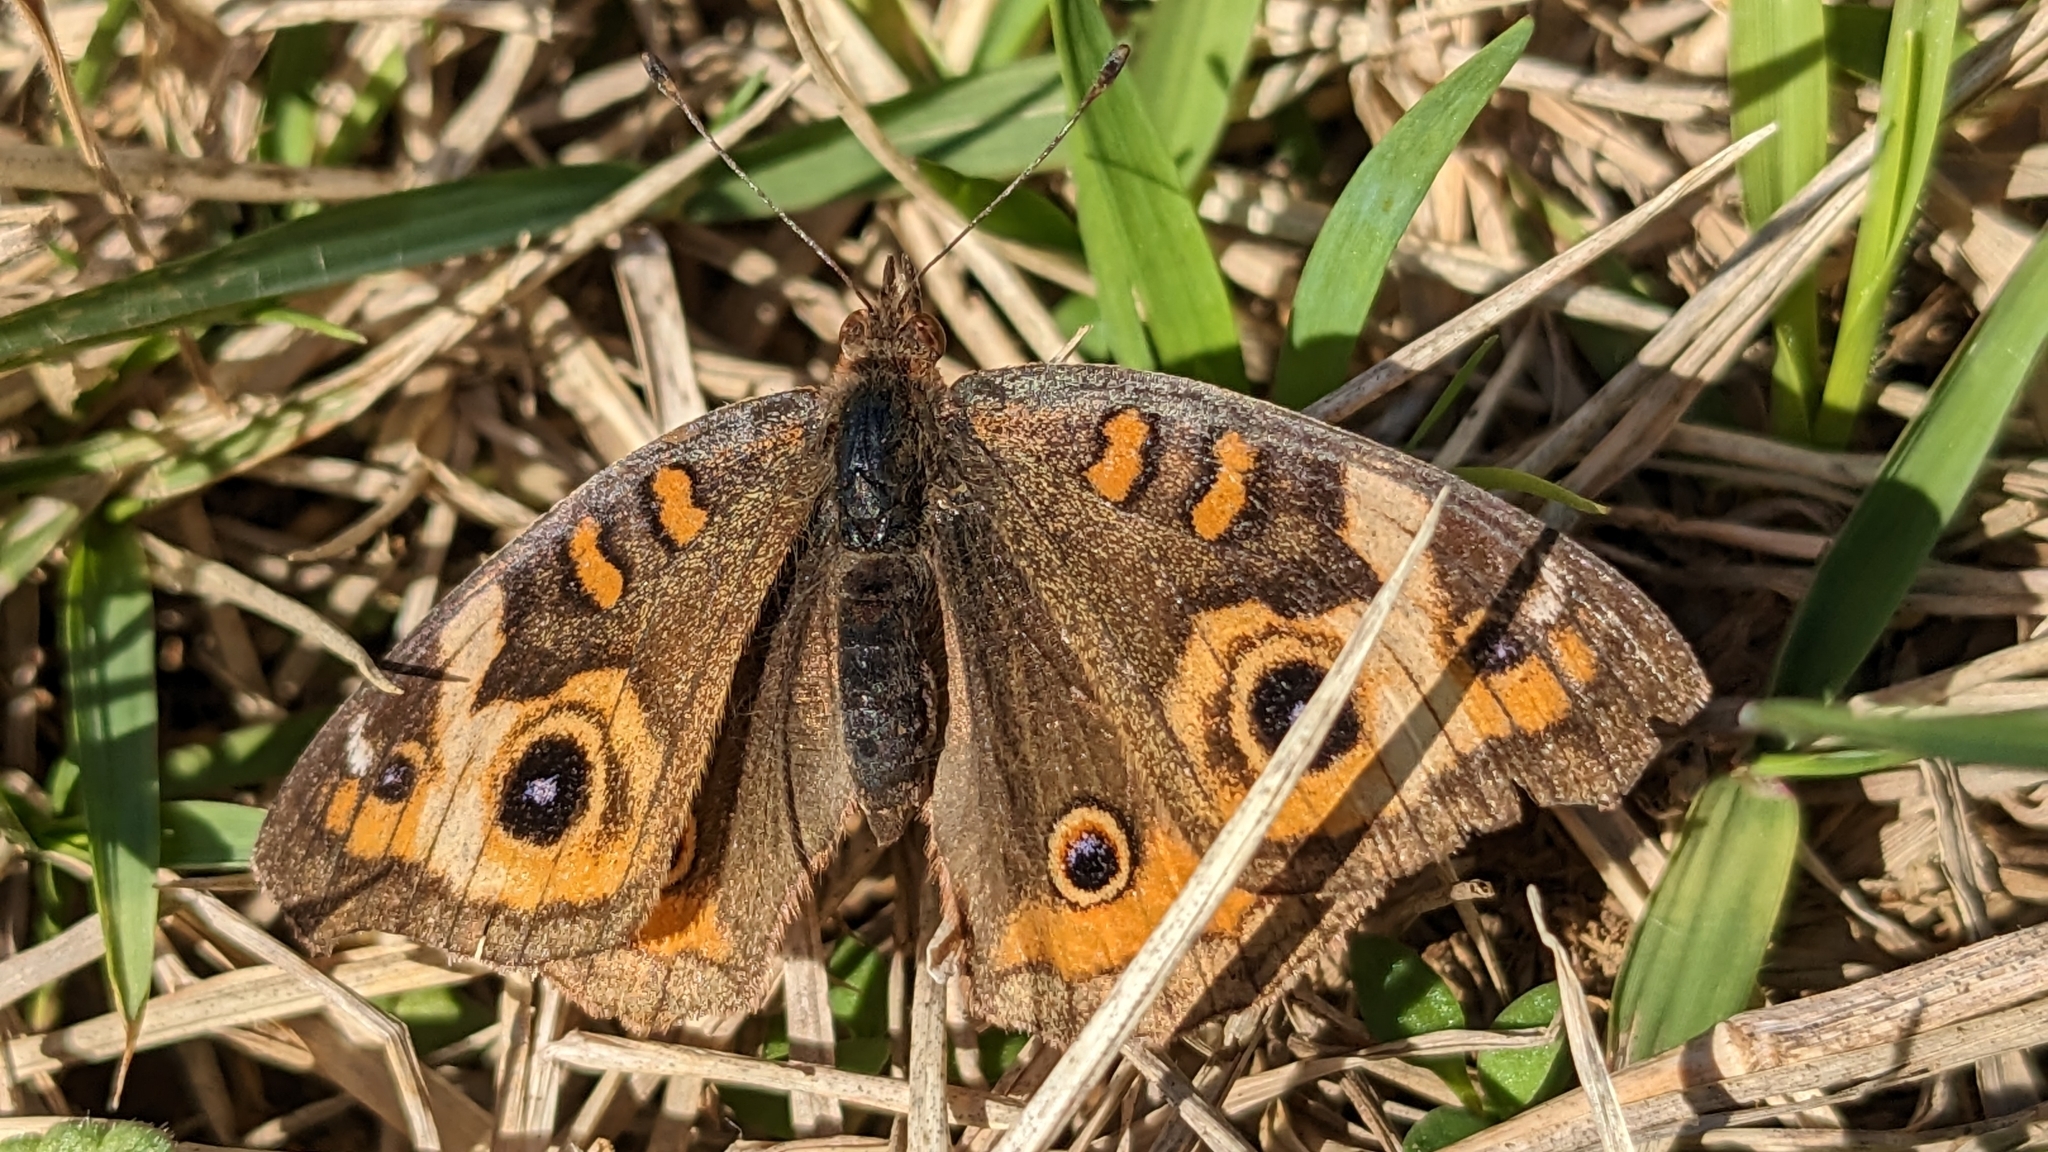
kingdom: Animalia
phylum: Arthropoda
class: Insecta
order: Lepidoptera
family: Nymphalidae
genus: Junonia
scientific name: Junonia coenia
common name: Common buckeye
